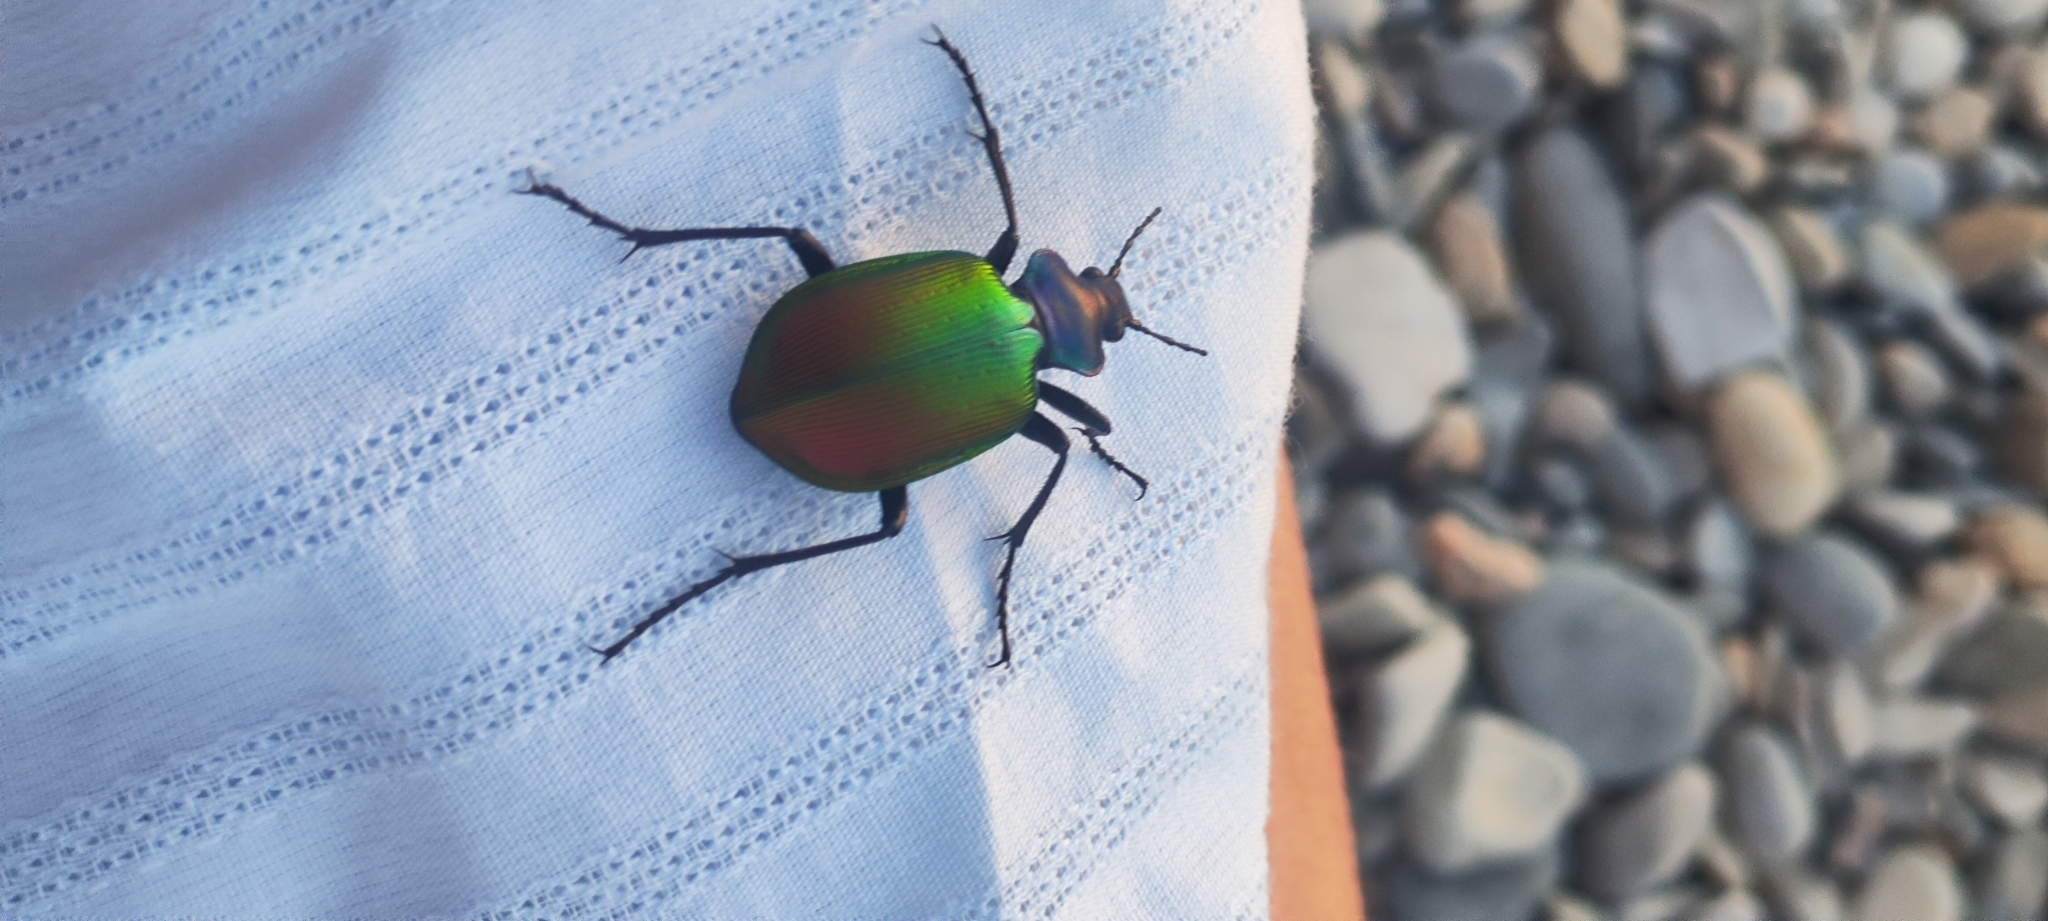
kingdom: Animalia
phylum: Arthropoda
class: Insecta
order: Coleoptera
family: Carabidae
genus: Calosoma
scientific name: Calosoma sycophanta
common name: Forest caterpillar hunter
